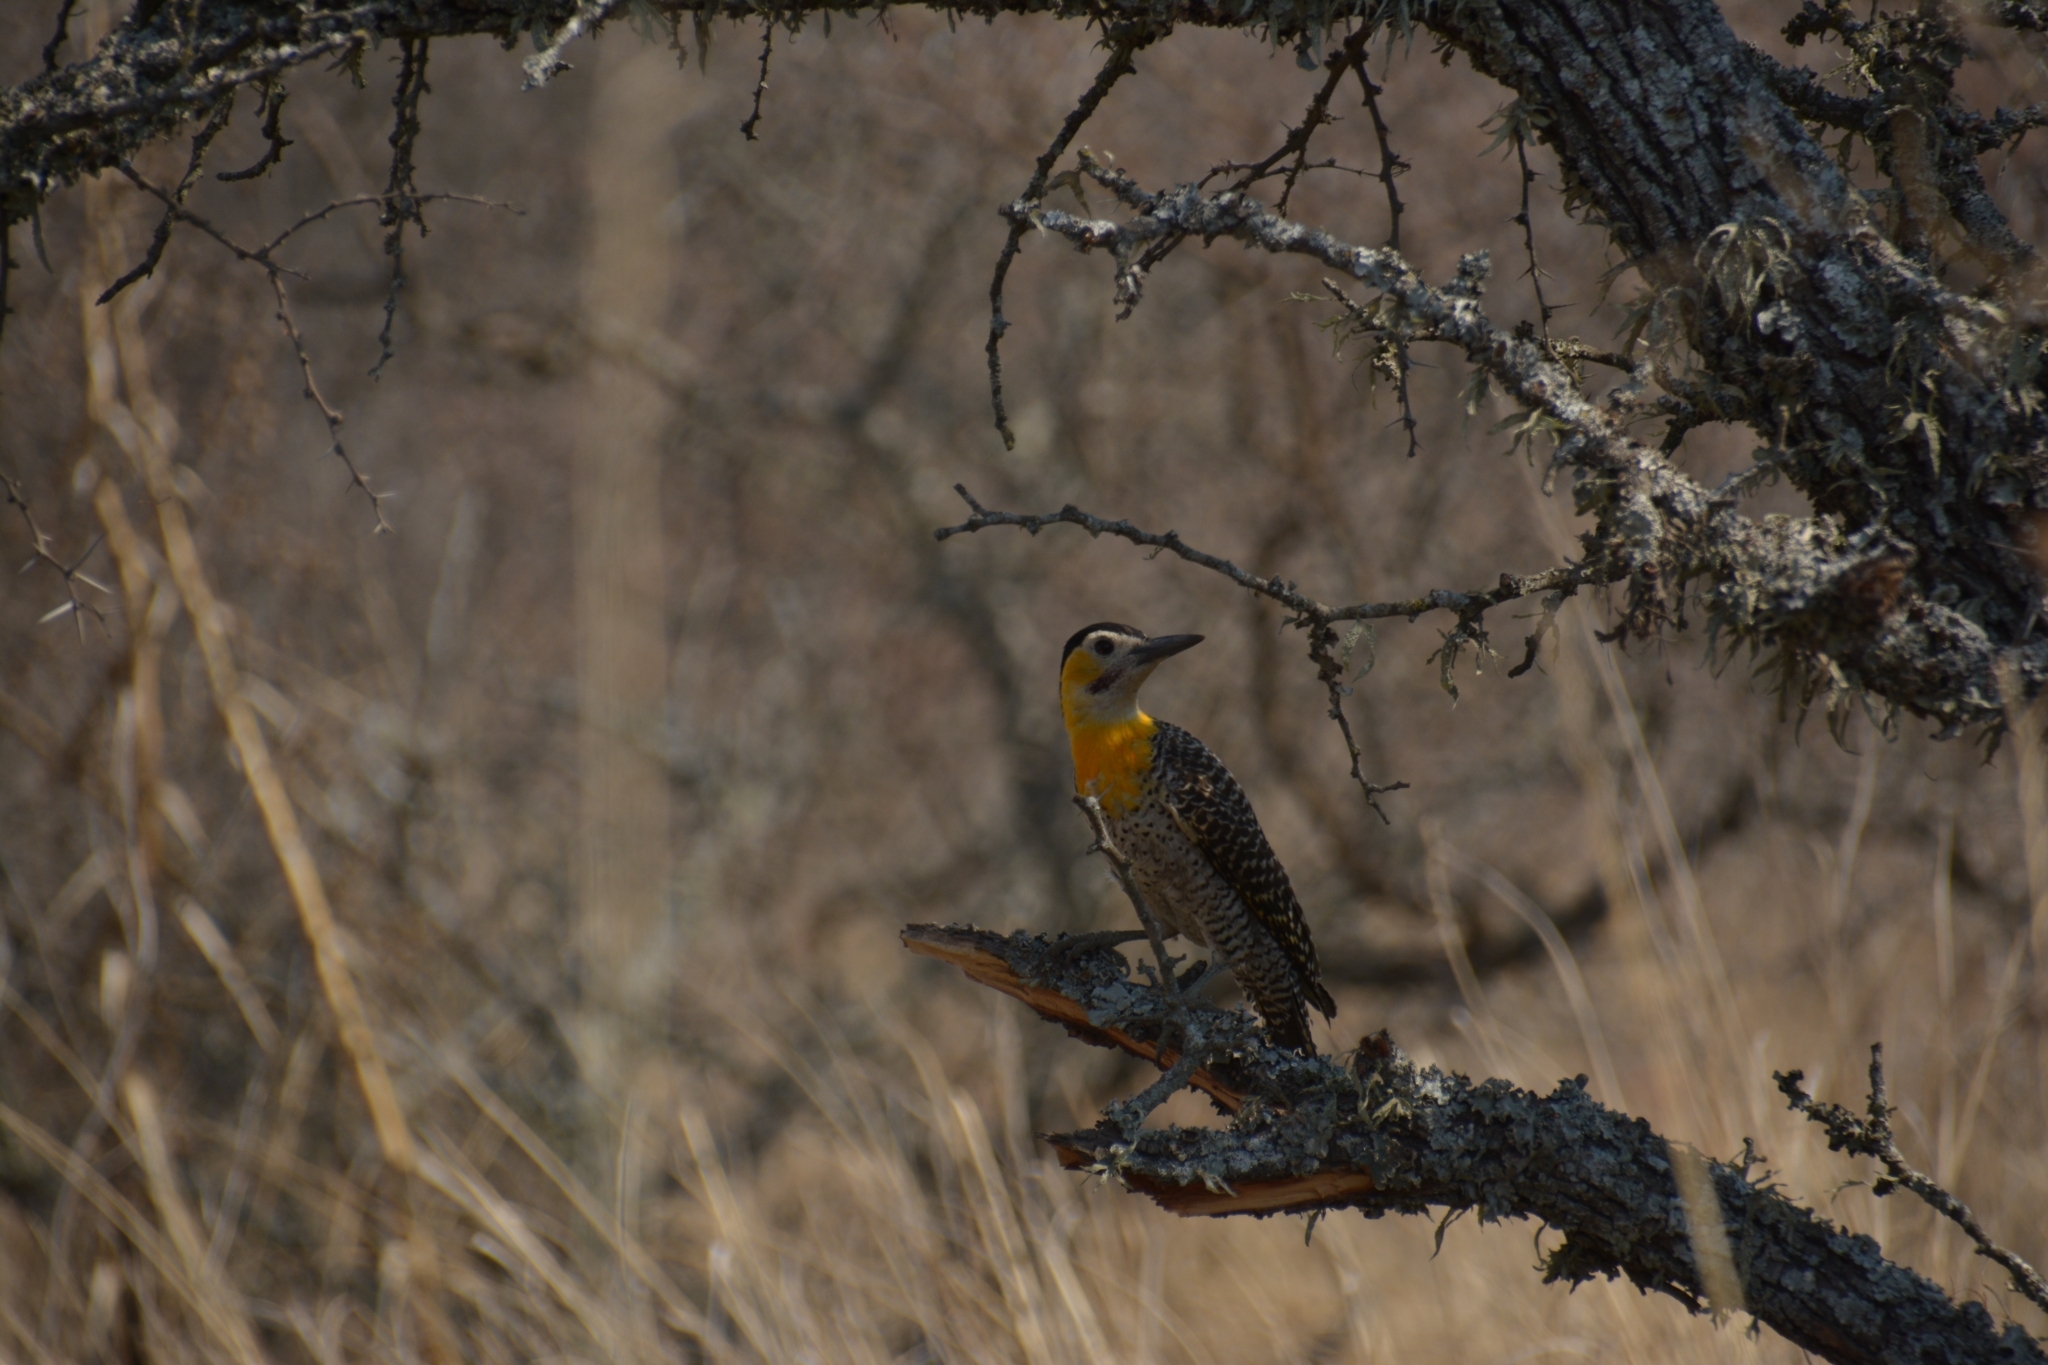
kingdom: Animalia
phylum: Chordata
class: Aves
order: Piciformes
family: Picidae
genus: Colaptes
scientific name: Colaptes campestris
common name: Campo flicker
